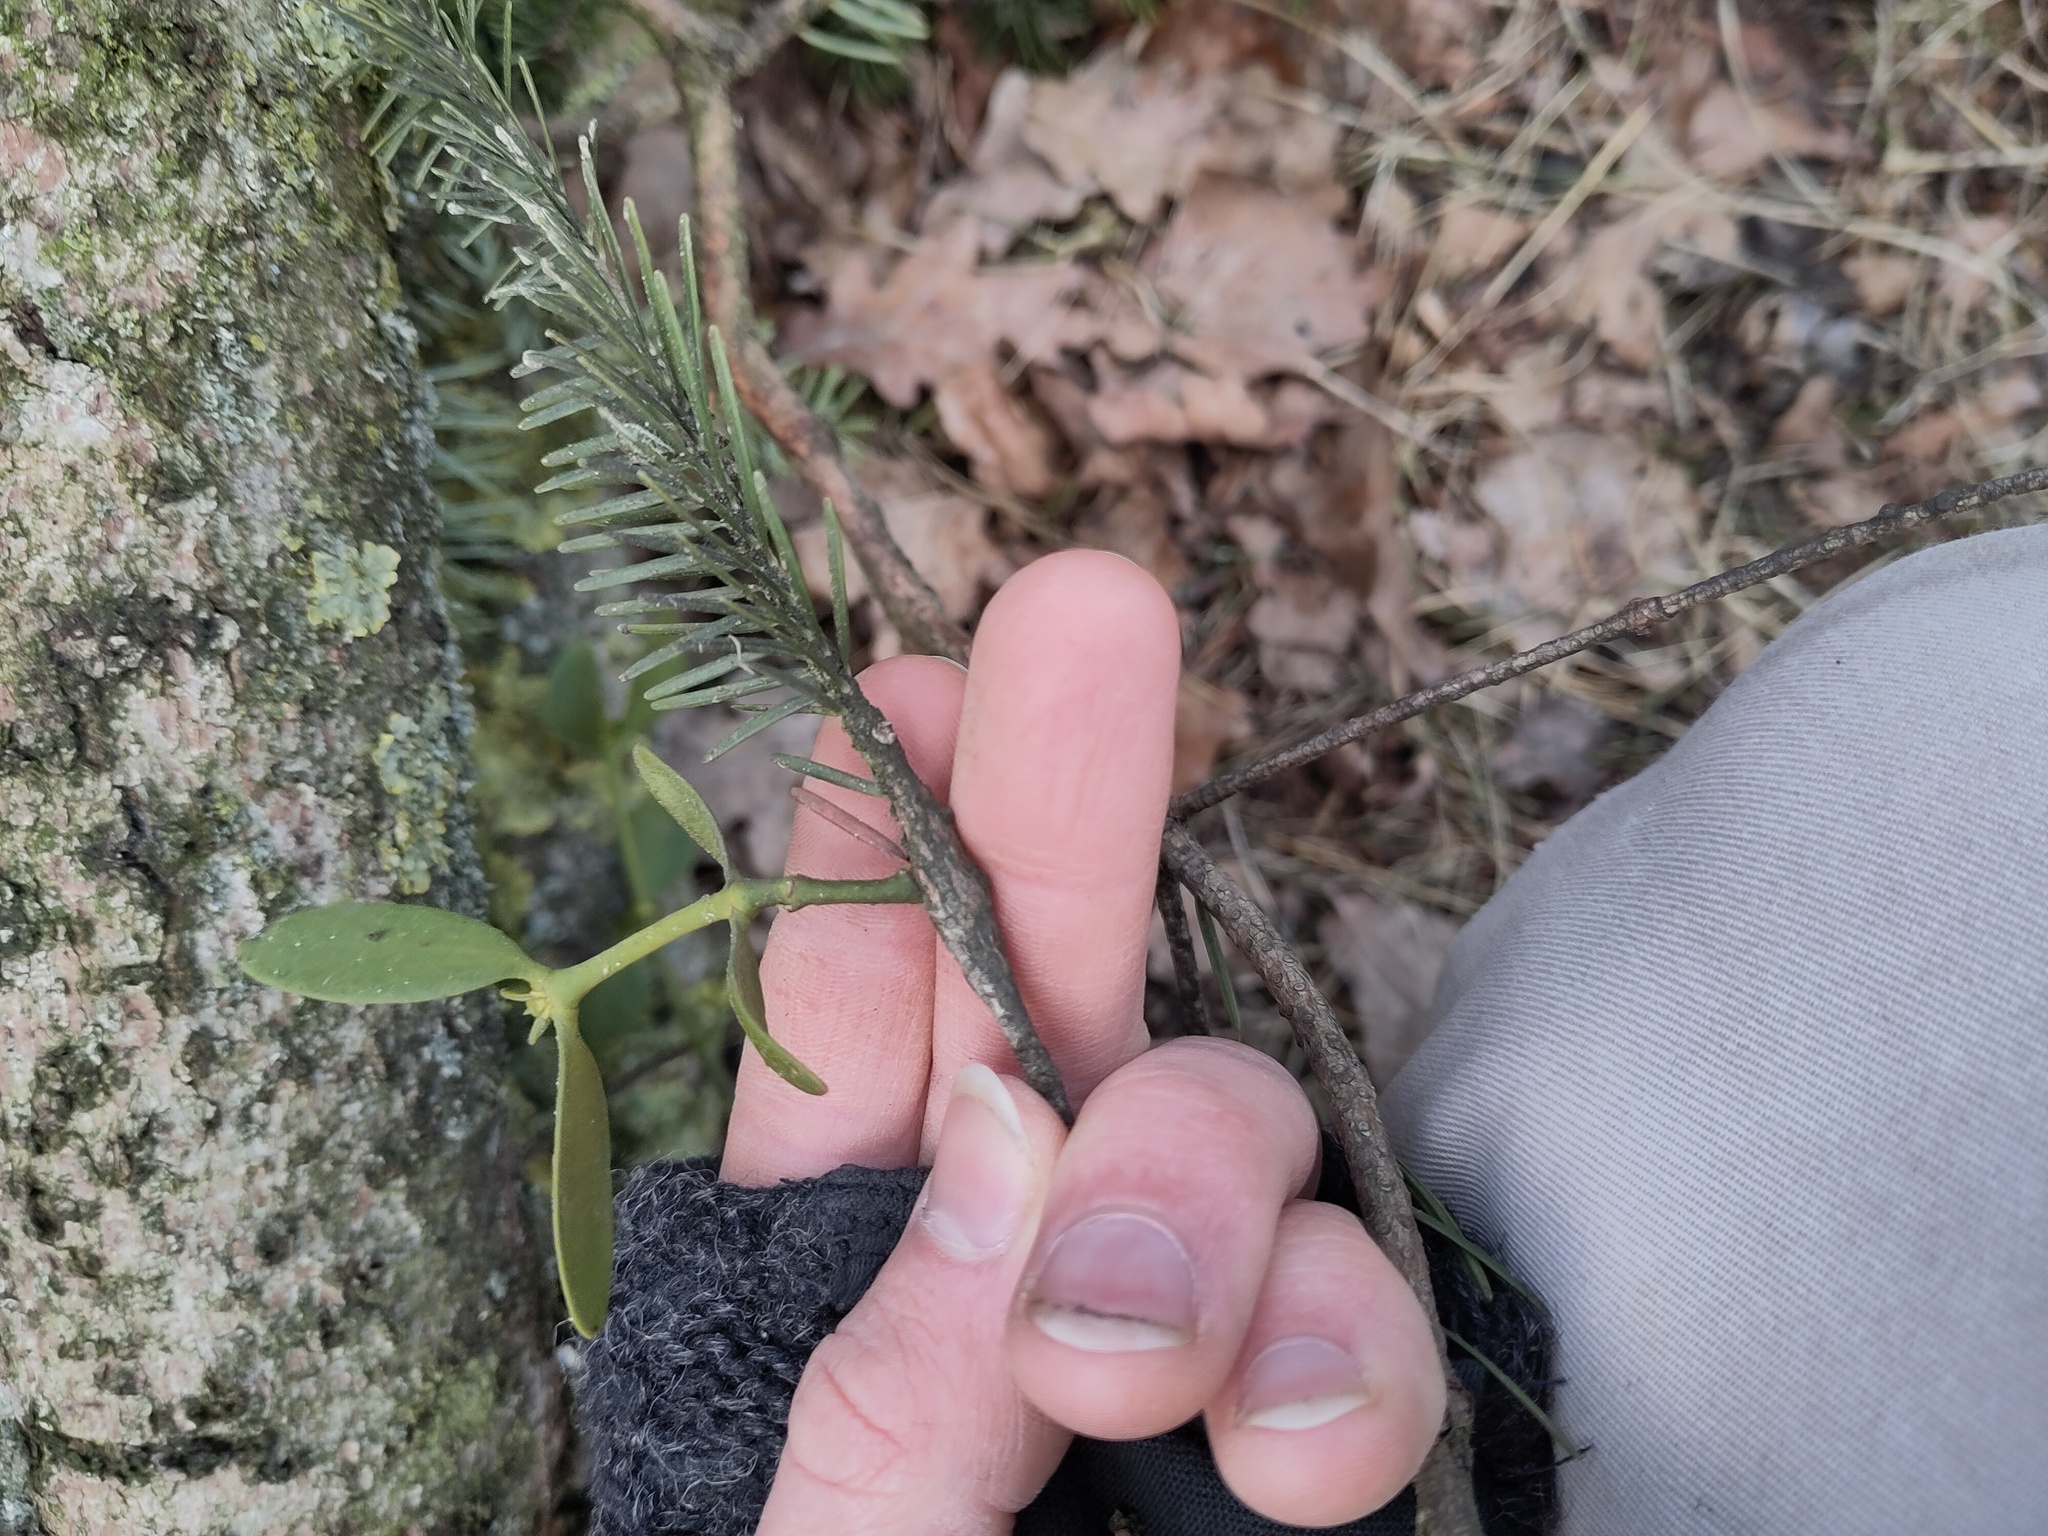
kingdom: Plantae
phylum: Tracheophyta
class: Magnoliopsida
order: Santalales
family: Viscaceae
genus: Viscum
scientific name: Viscum album
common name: Mistletoe
